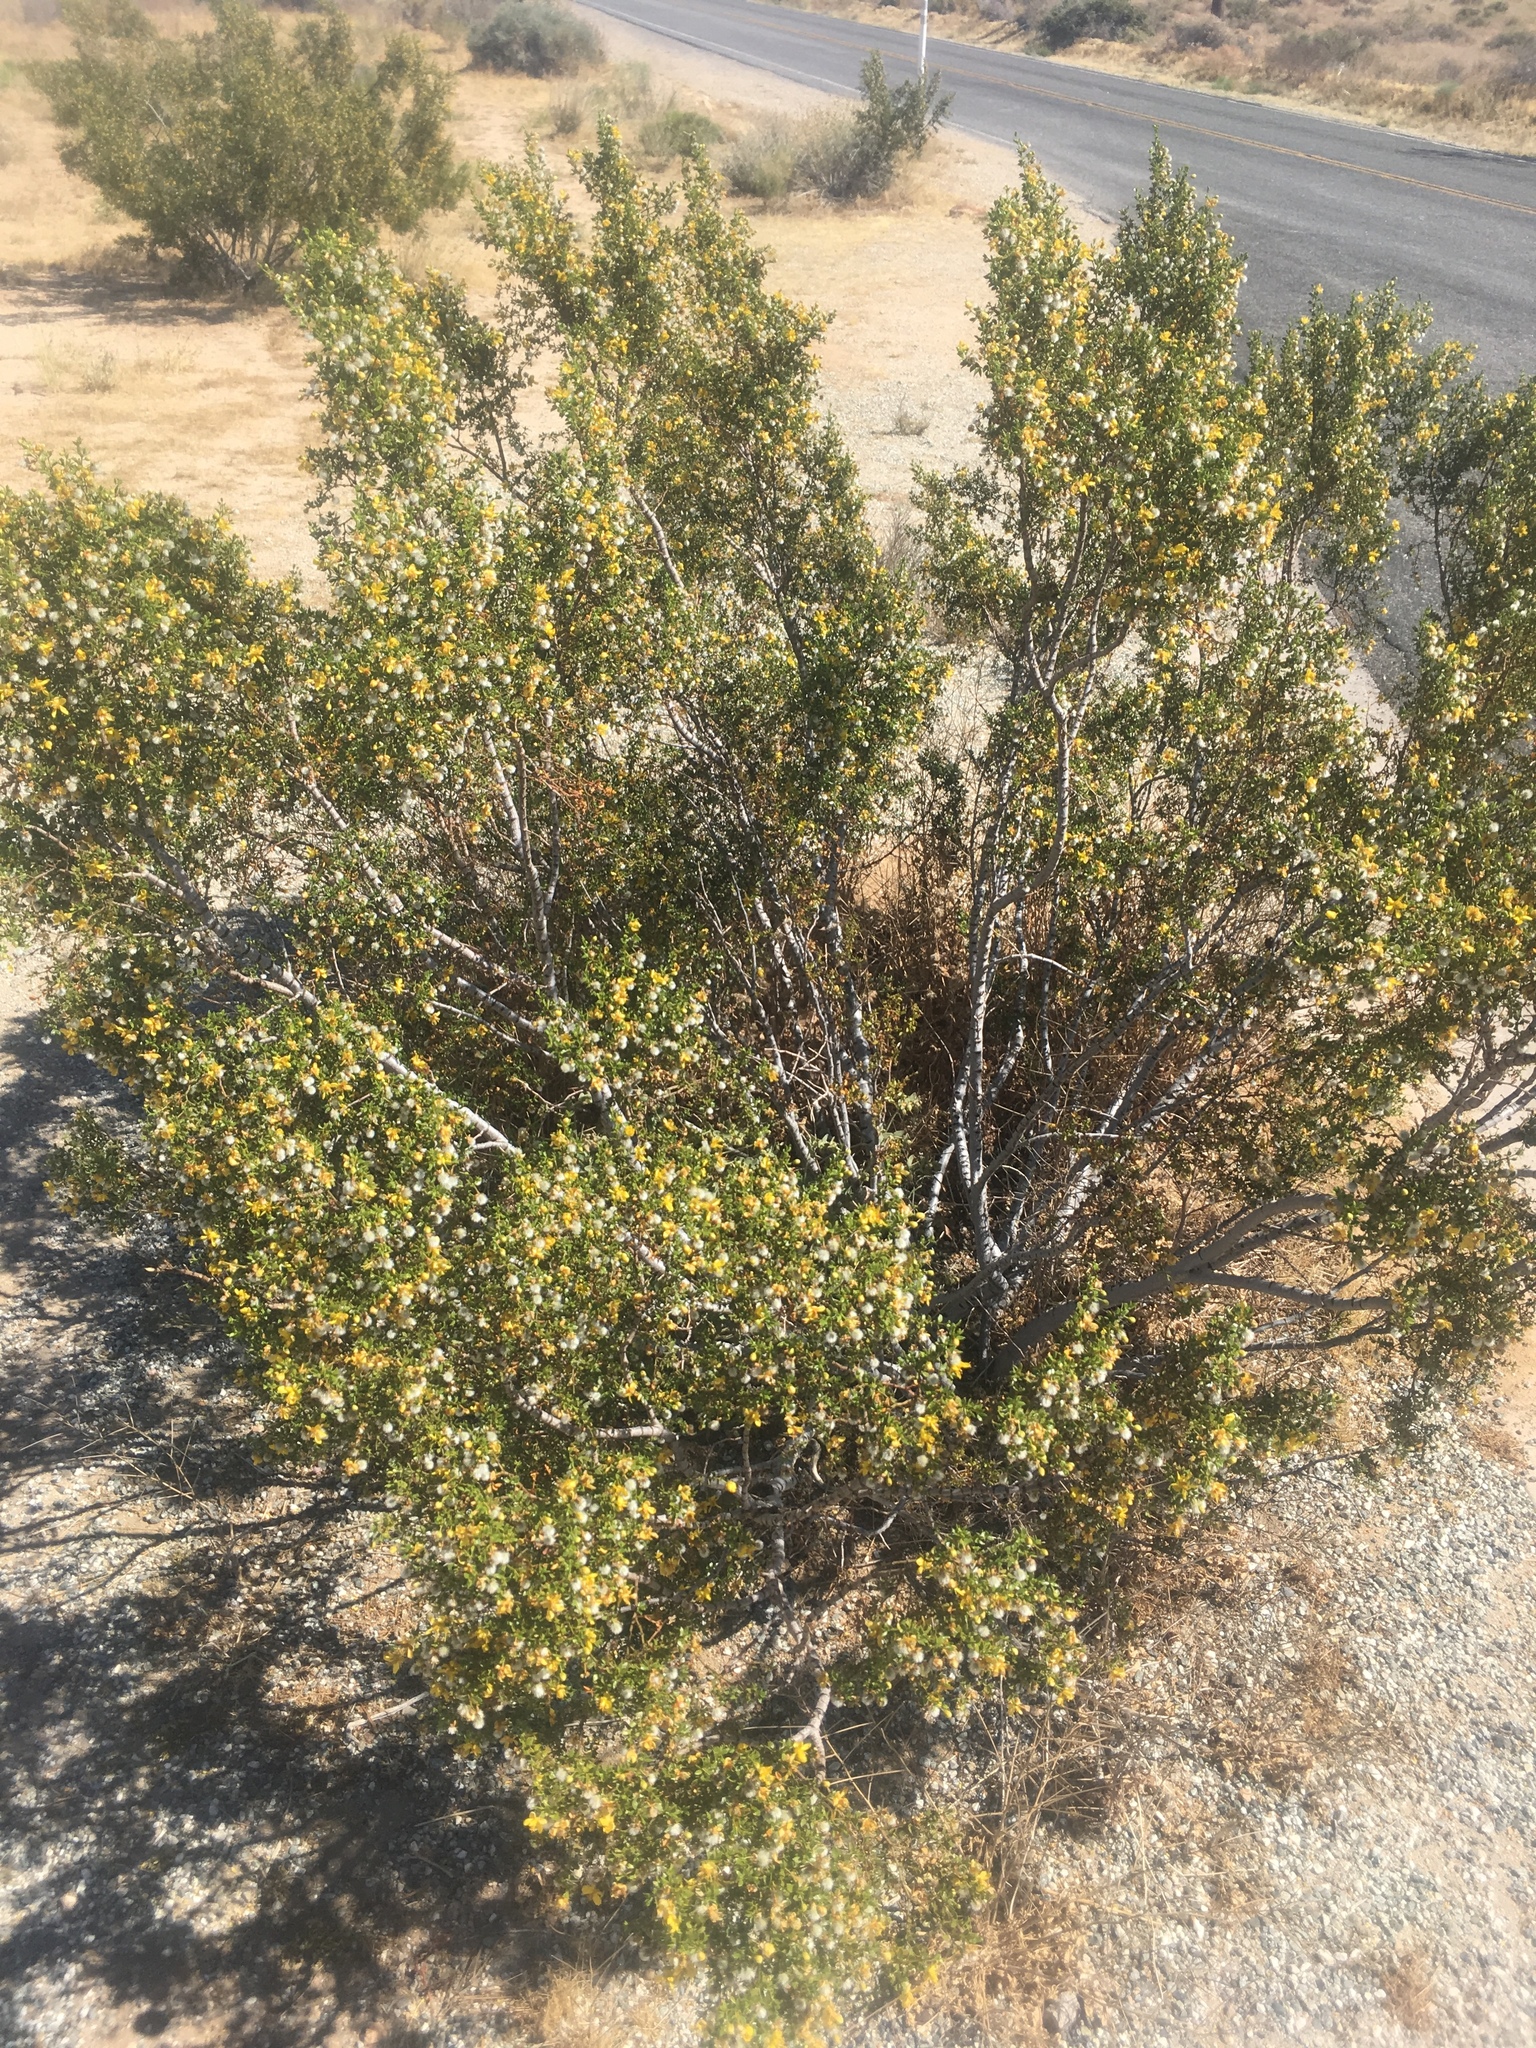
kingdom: Plantae
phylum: Tracheophyta
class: Magnoliopsida
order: Zygophyllales
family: Zygophyllaceae
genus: Larrea
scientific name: Larrea tridentata
